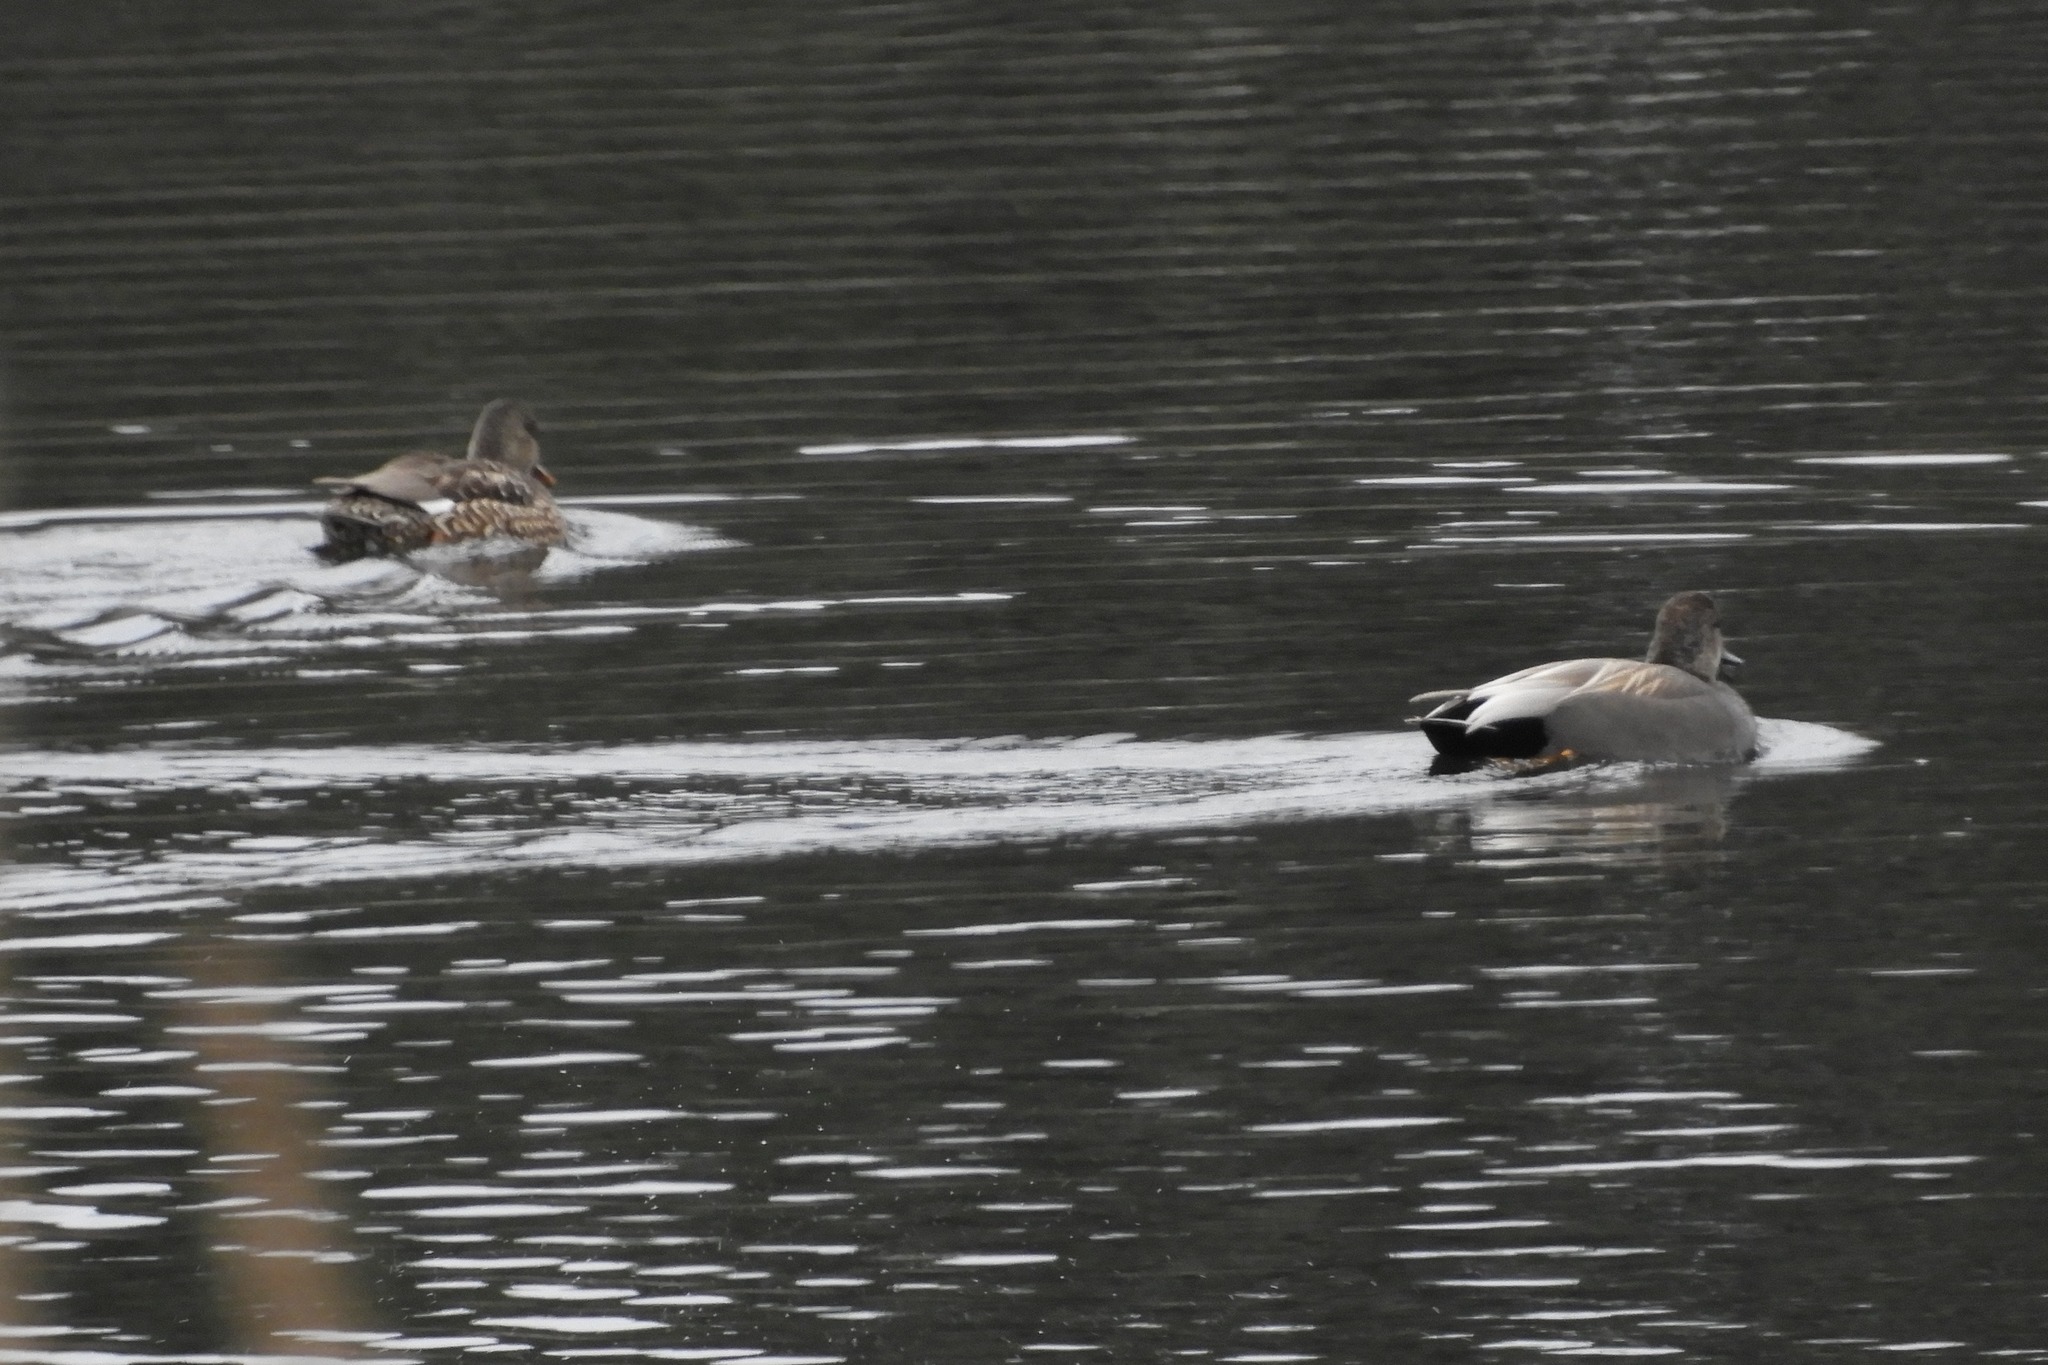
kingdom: Animalia
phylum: Chordata
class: Aves
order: Anseriformes
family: Anatidae
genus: Mareca
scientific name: Mareca strepera
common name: Gadwall
